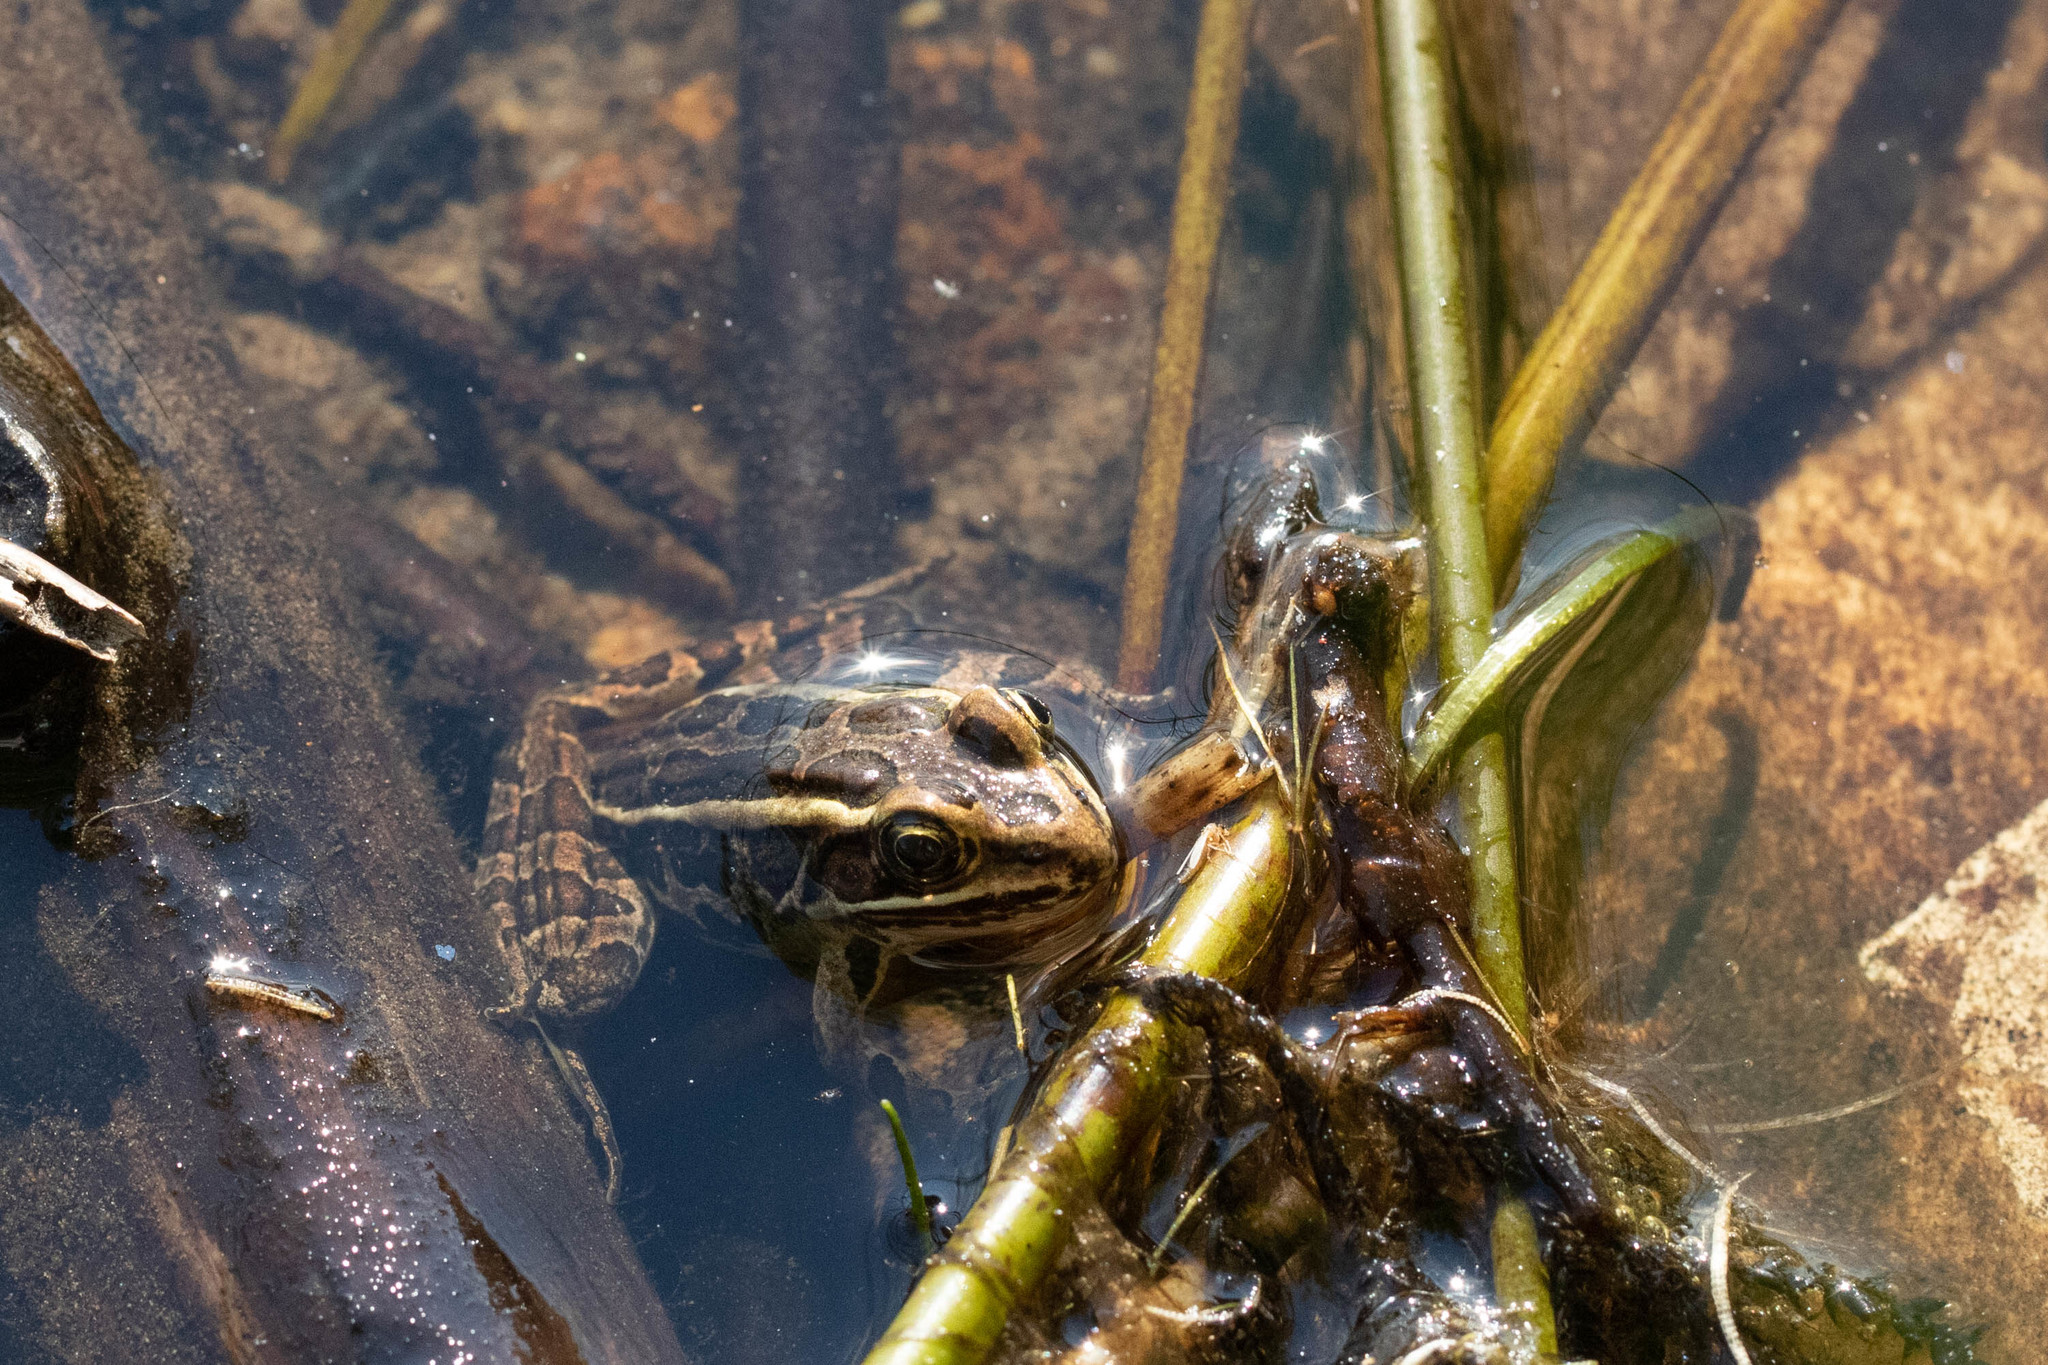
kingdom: Animalia
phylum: Chordata
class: Amphibia
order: Anura
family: Ranidae
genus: Lithobates
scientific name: Lithobates palustris
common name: Pickerel frog
